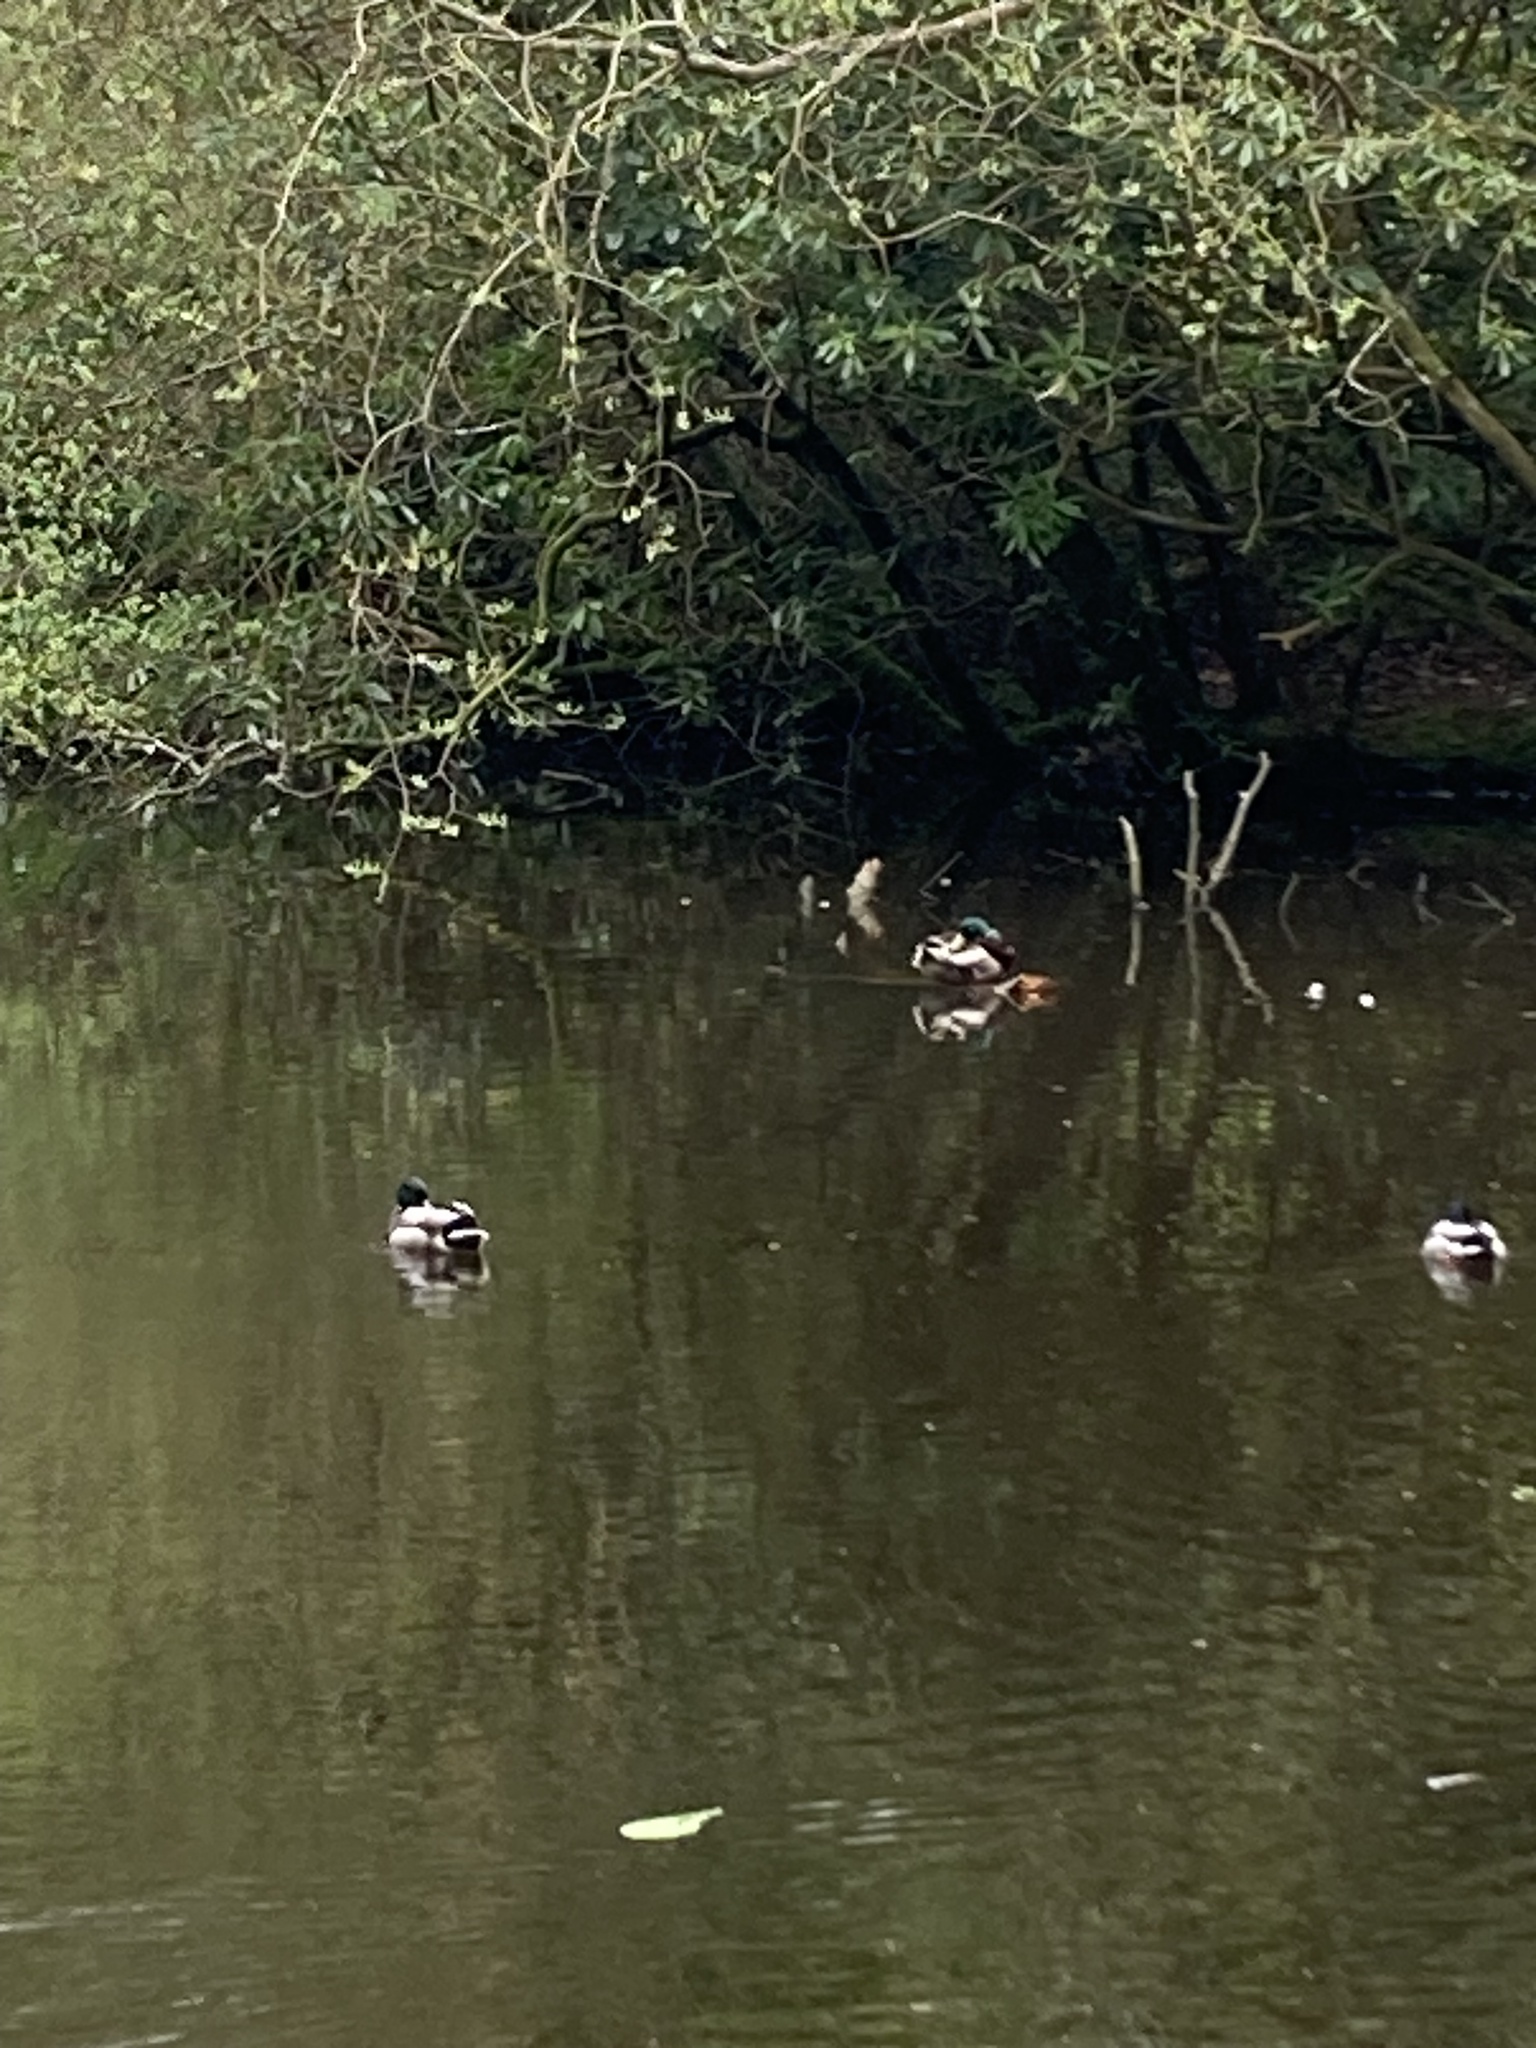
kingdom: Animalia
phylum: Chordata
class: Aves
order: Anseriformes
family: Anatidae
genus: Anas
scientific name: Anas platyrhynchos
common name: Mallard
